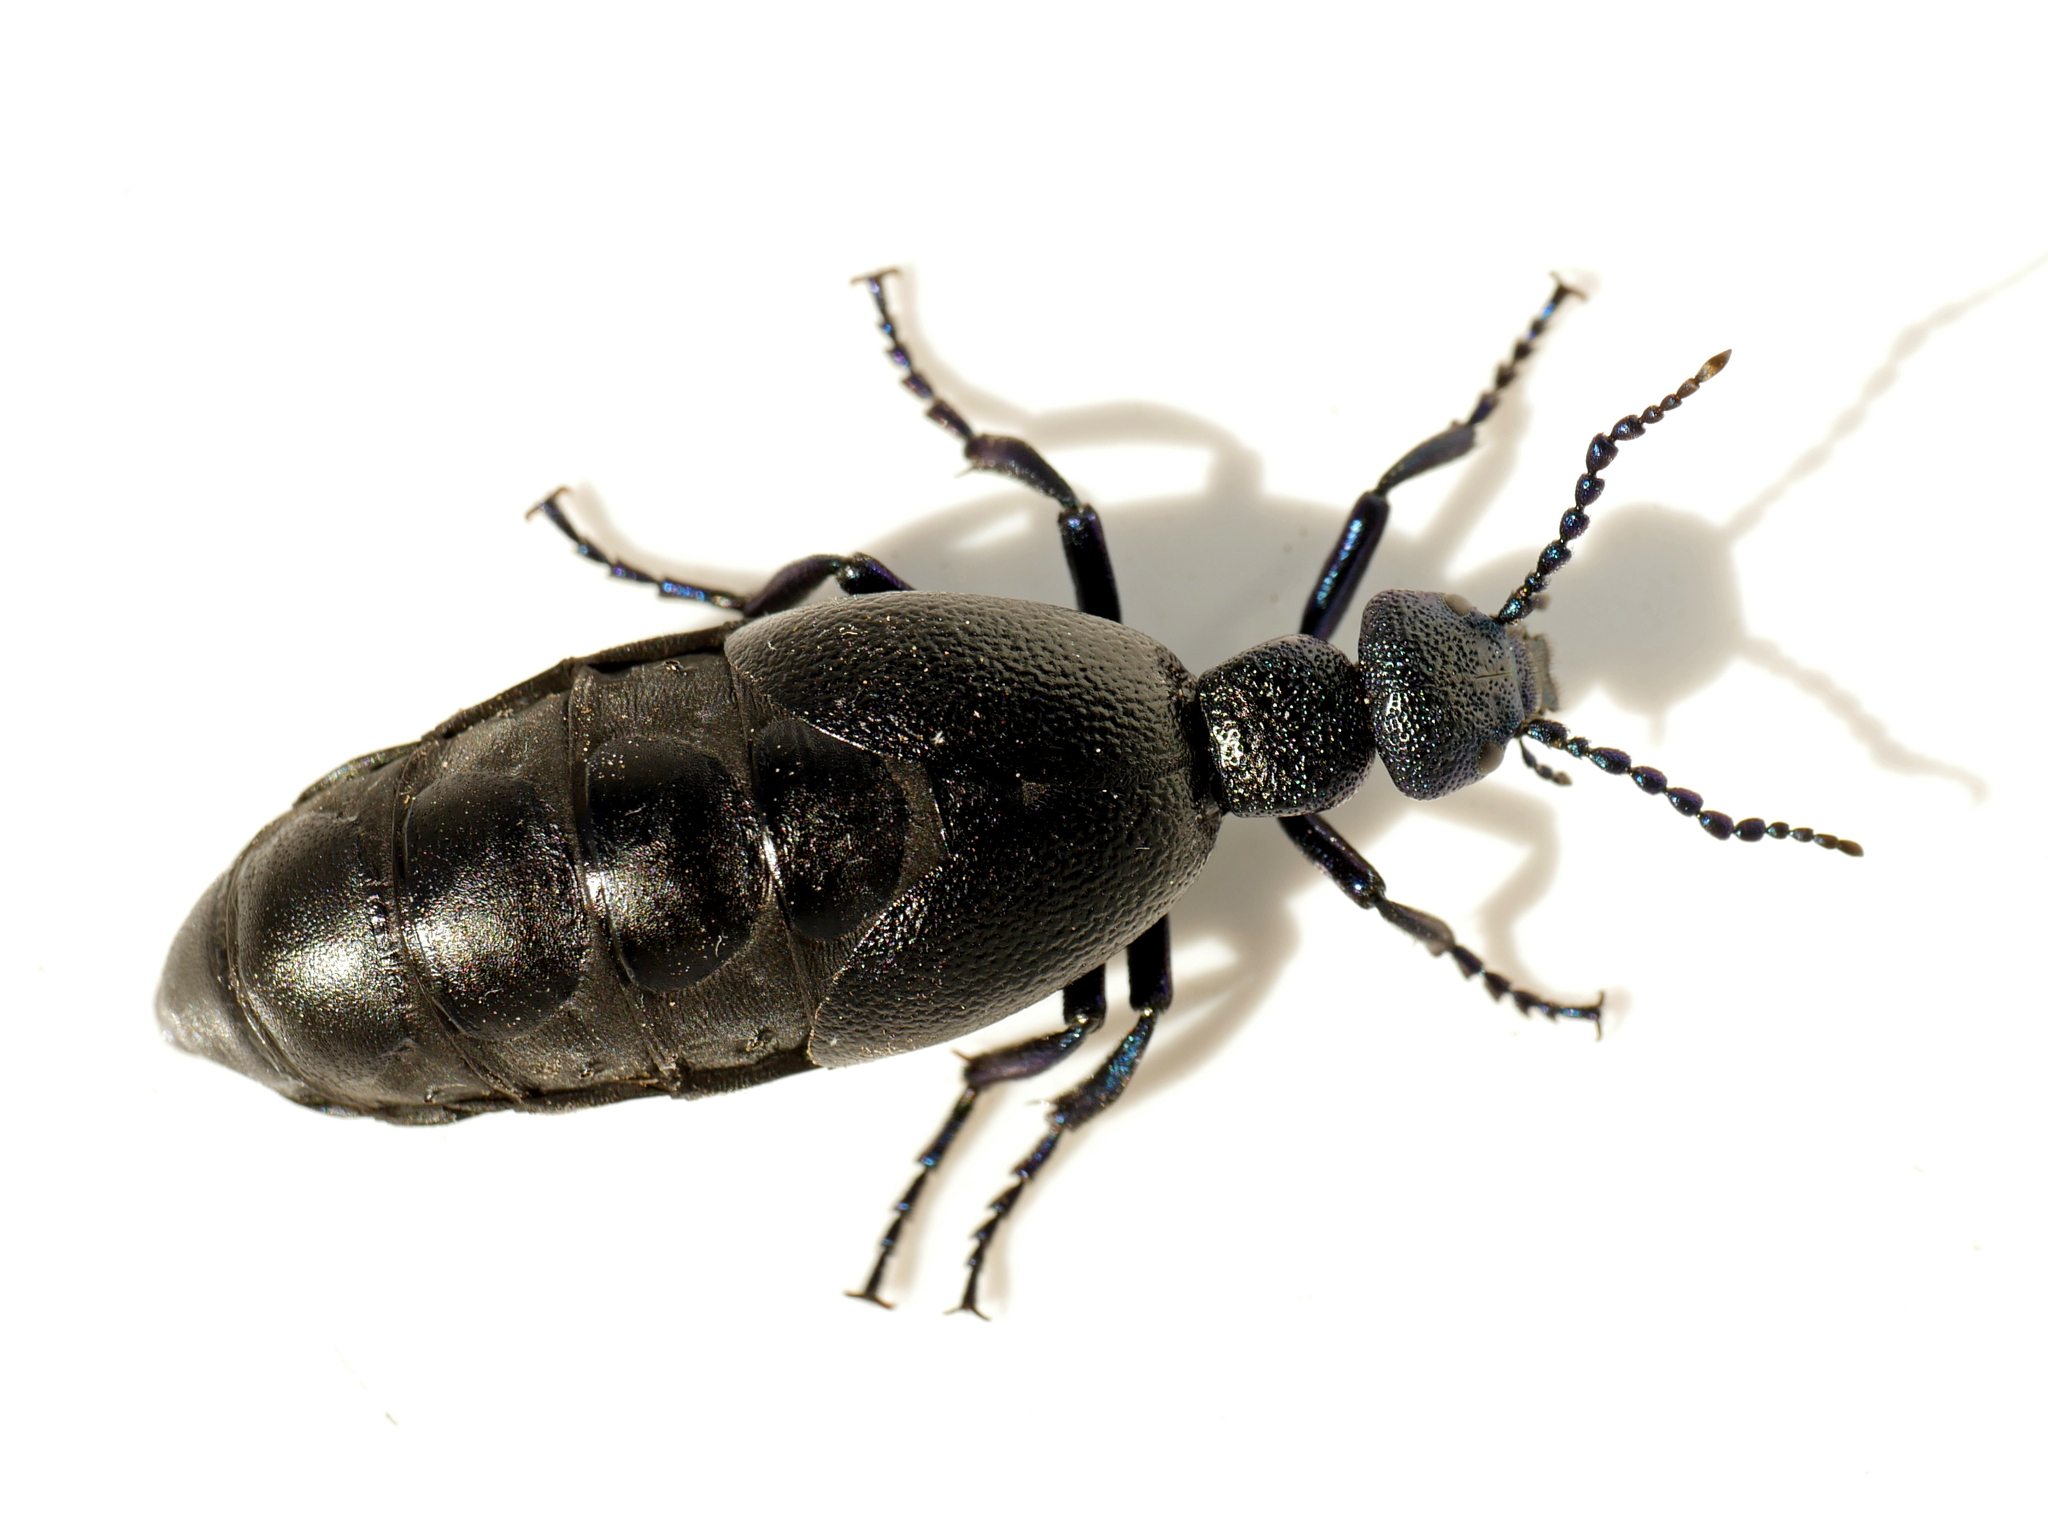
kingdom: Animalia
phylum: Arthropoda
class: Insecta
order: Coleoptera
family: Meloidae
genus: Meloe
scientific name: Meloe proscarabaeus
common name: Black oil-beetle
